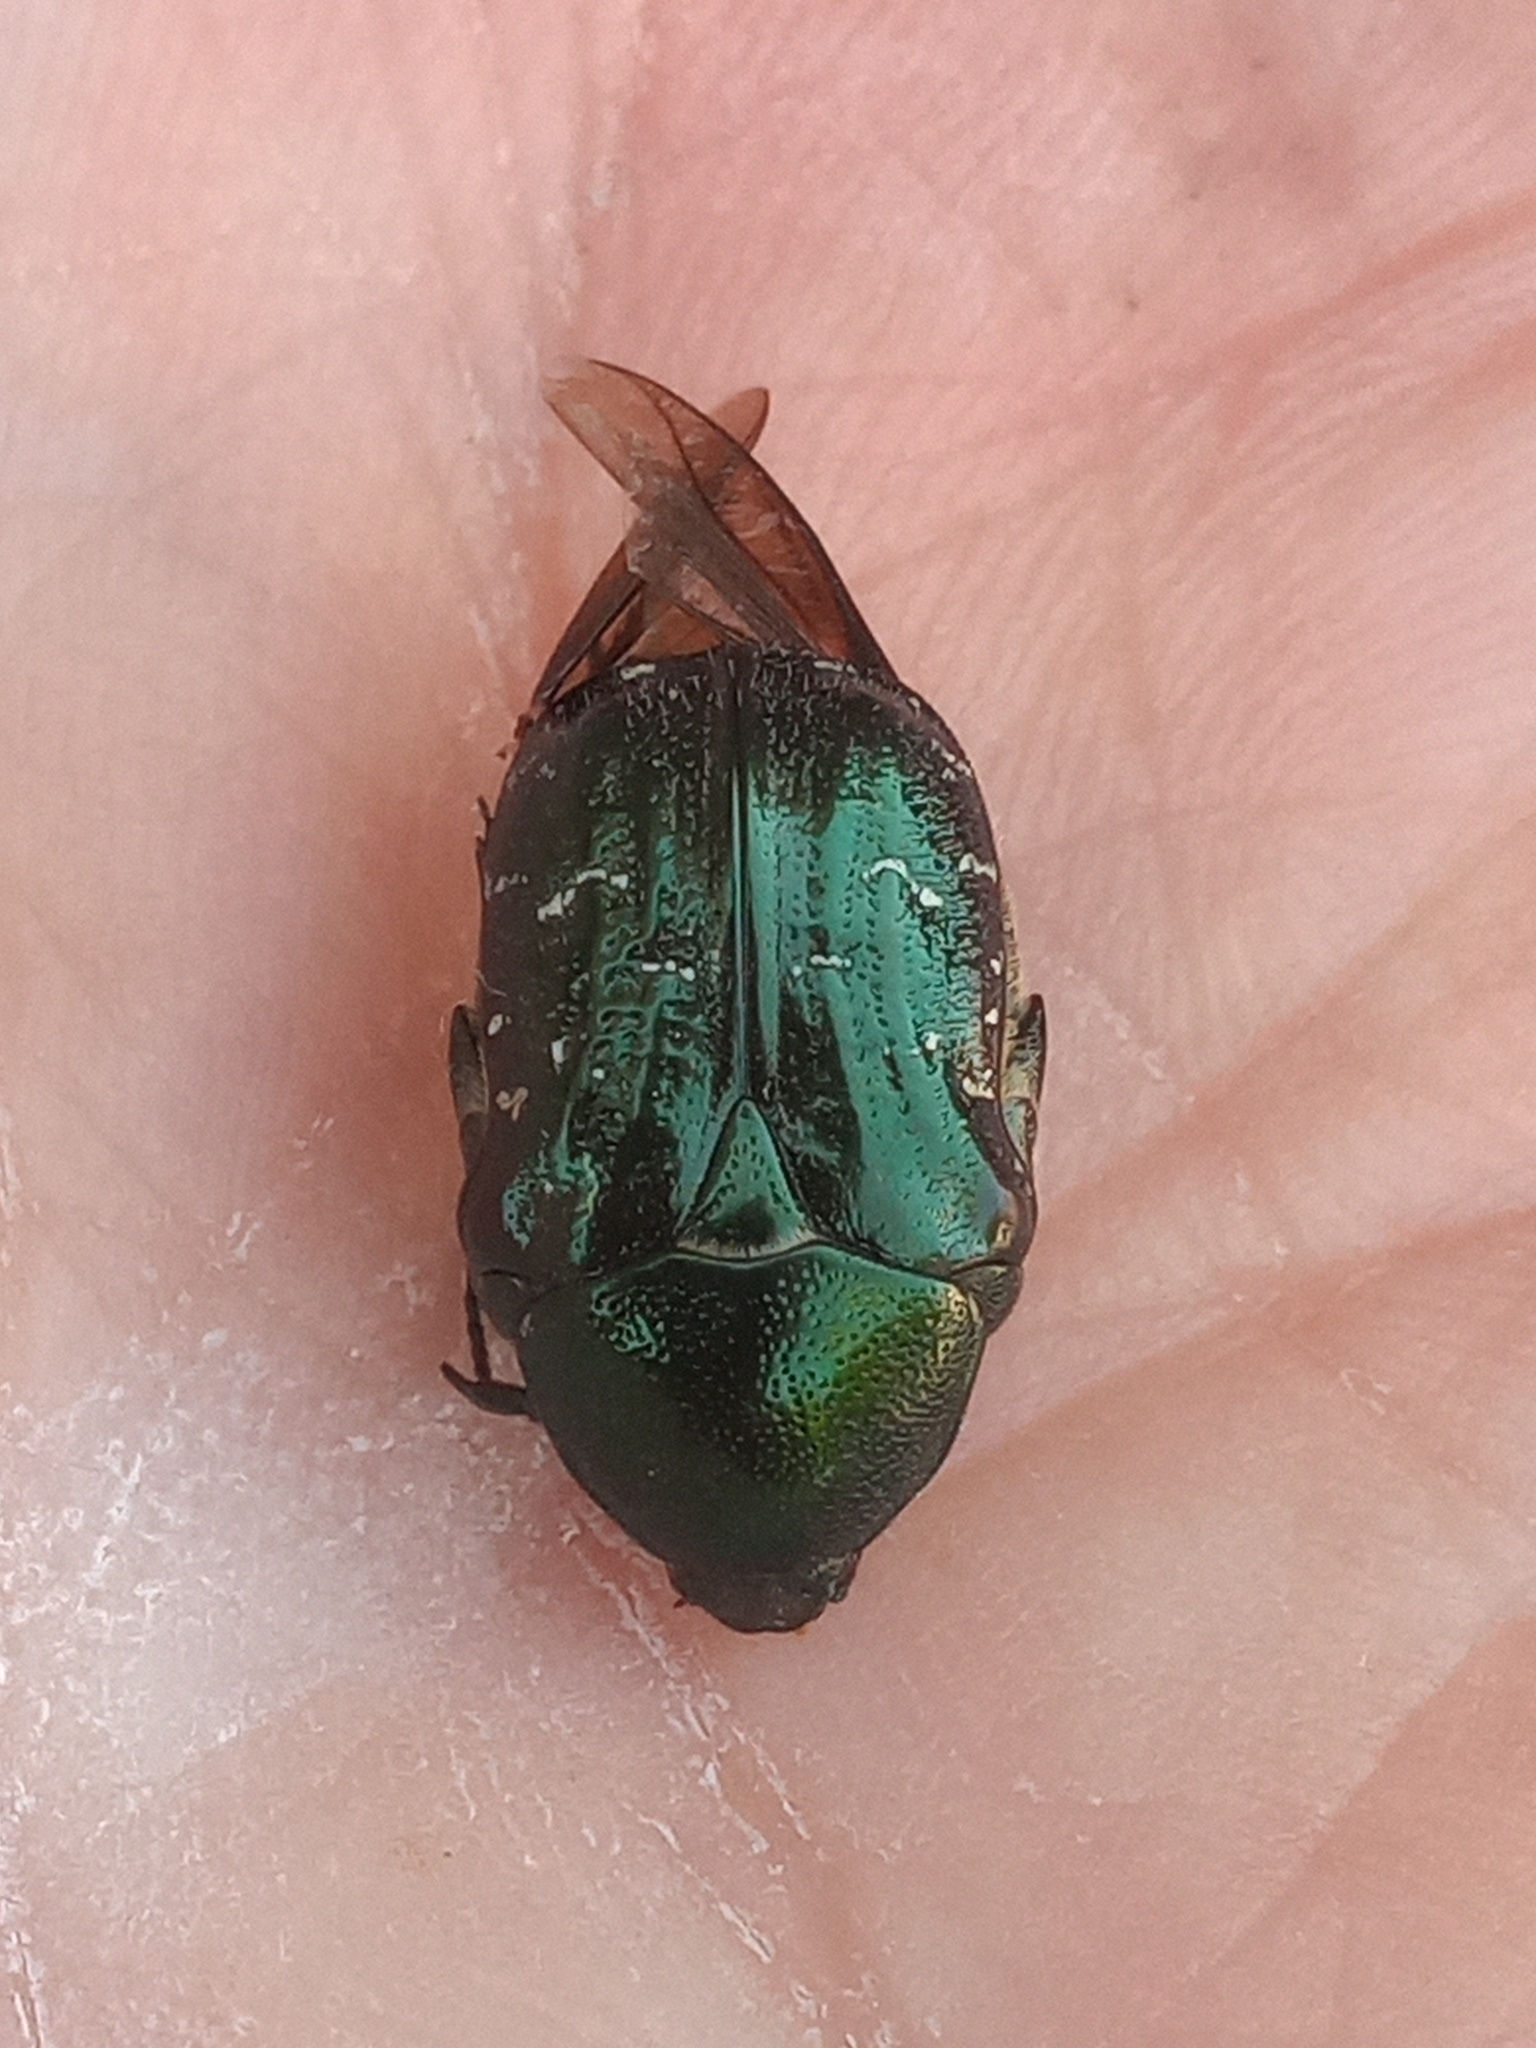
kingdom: Animalia
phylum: Arthropoda
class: Insecta
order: Coleoptera
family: Scarabaeidae
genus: Euphoria
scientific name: Euphoria sepulcralis
